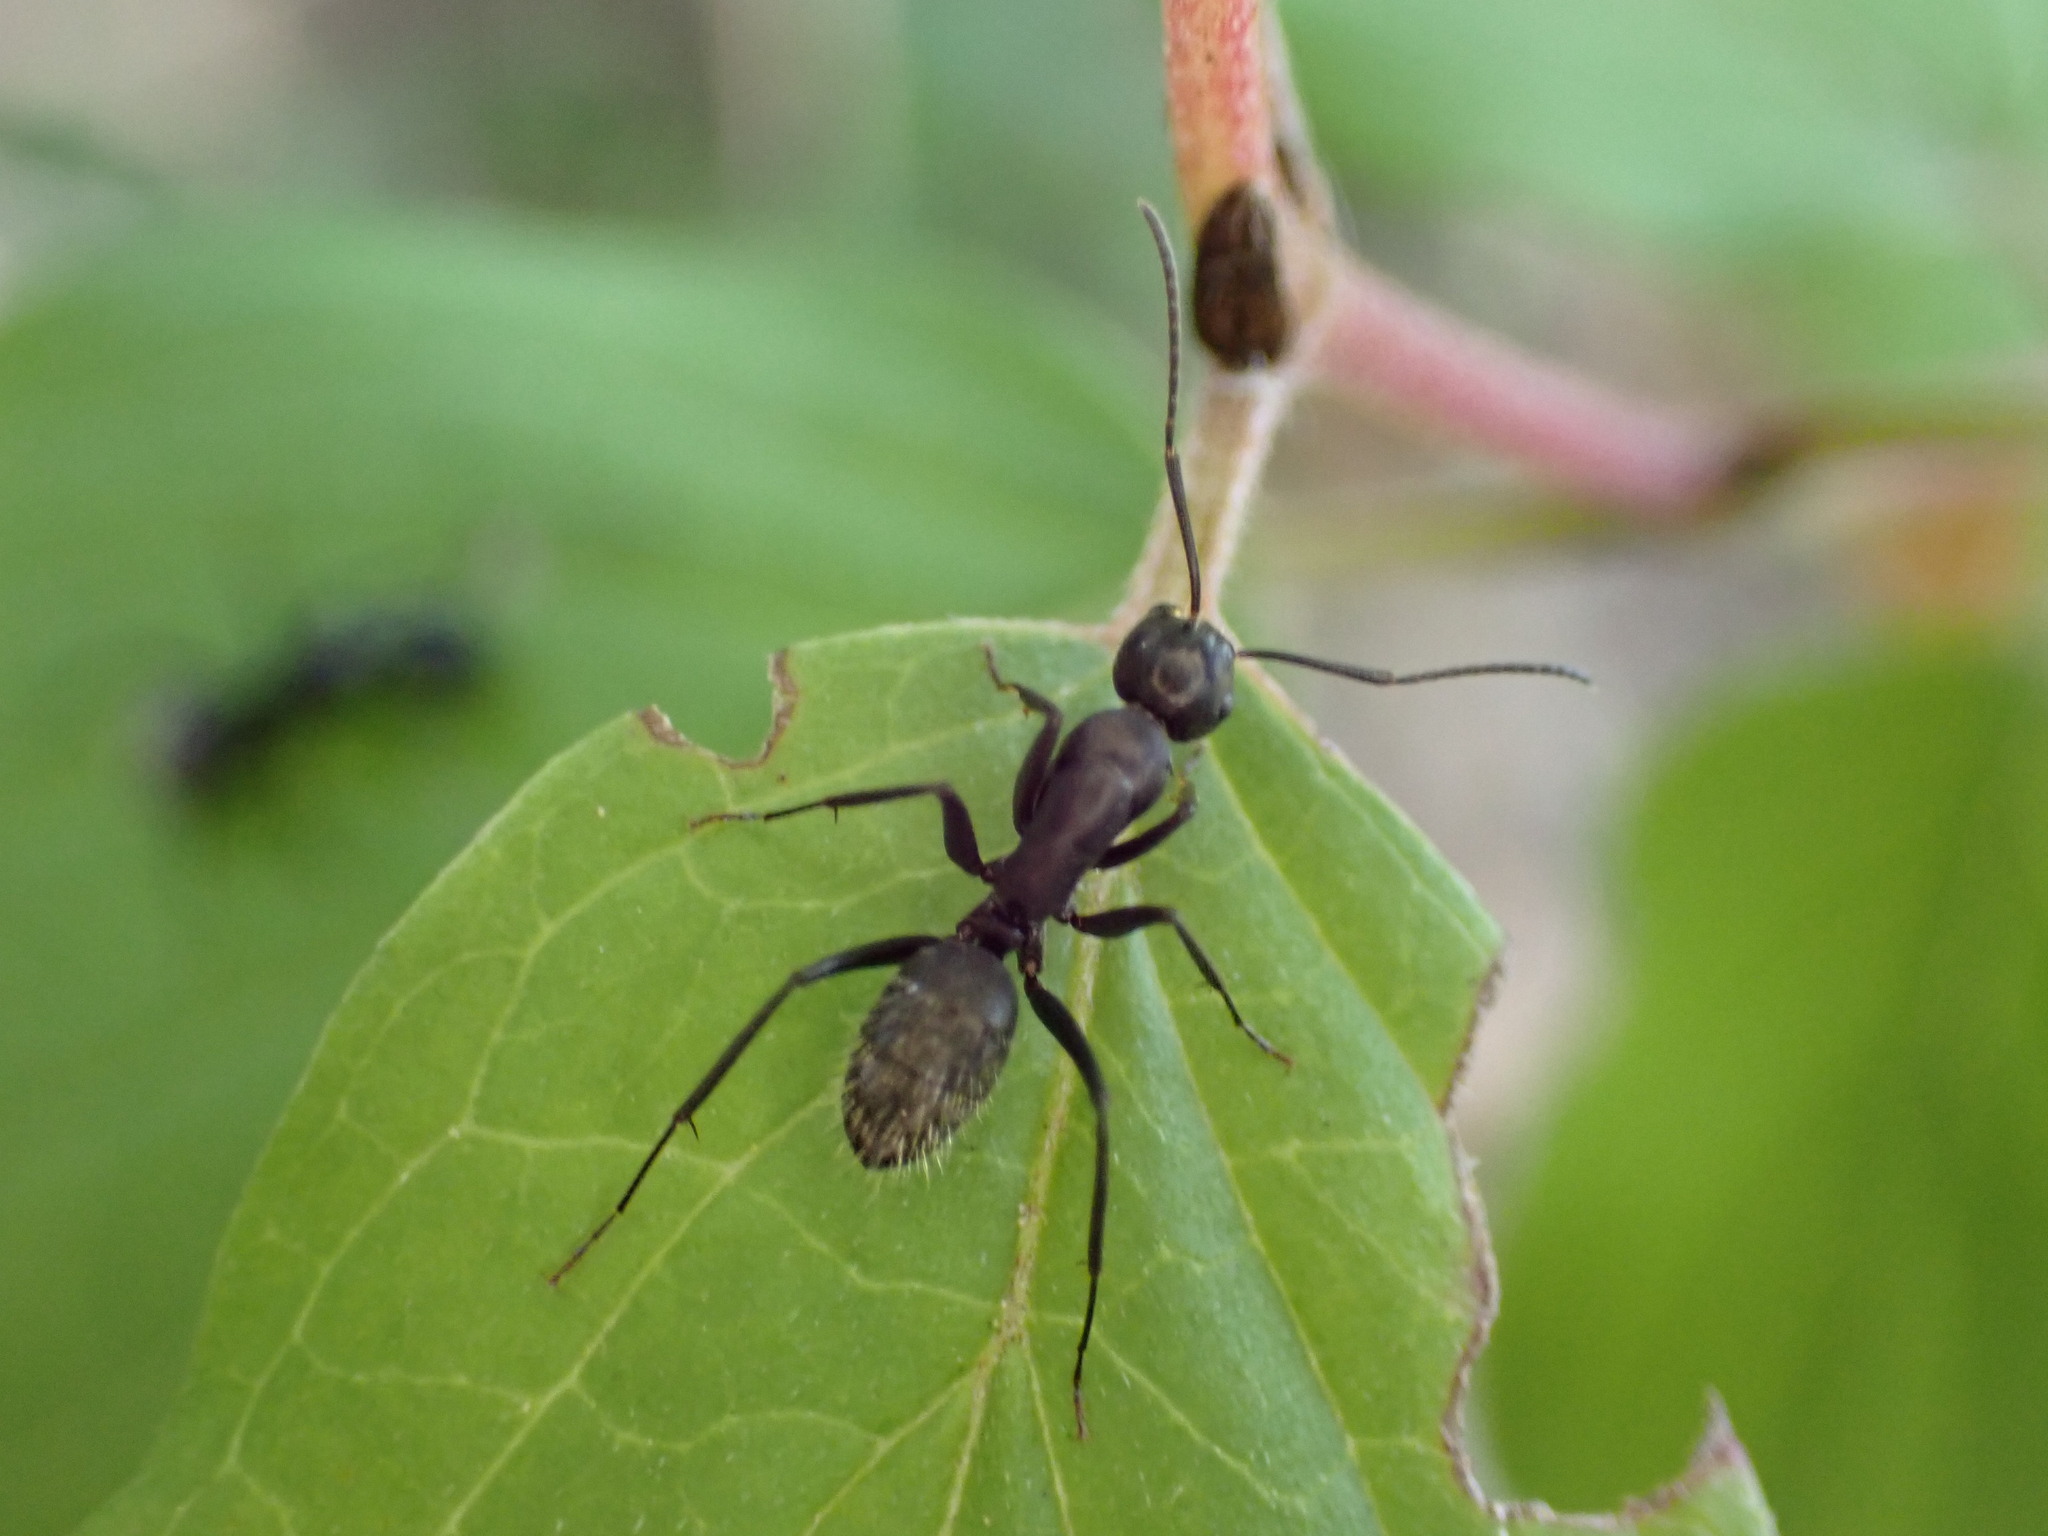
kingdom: Animalia
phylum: Arthropoda
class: Insecta
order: Hymenoptera
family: Formicidae
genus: Camponotus
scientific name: Camponotus vagus
